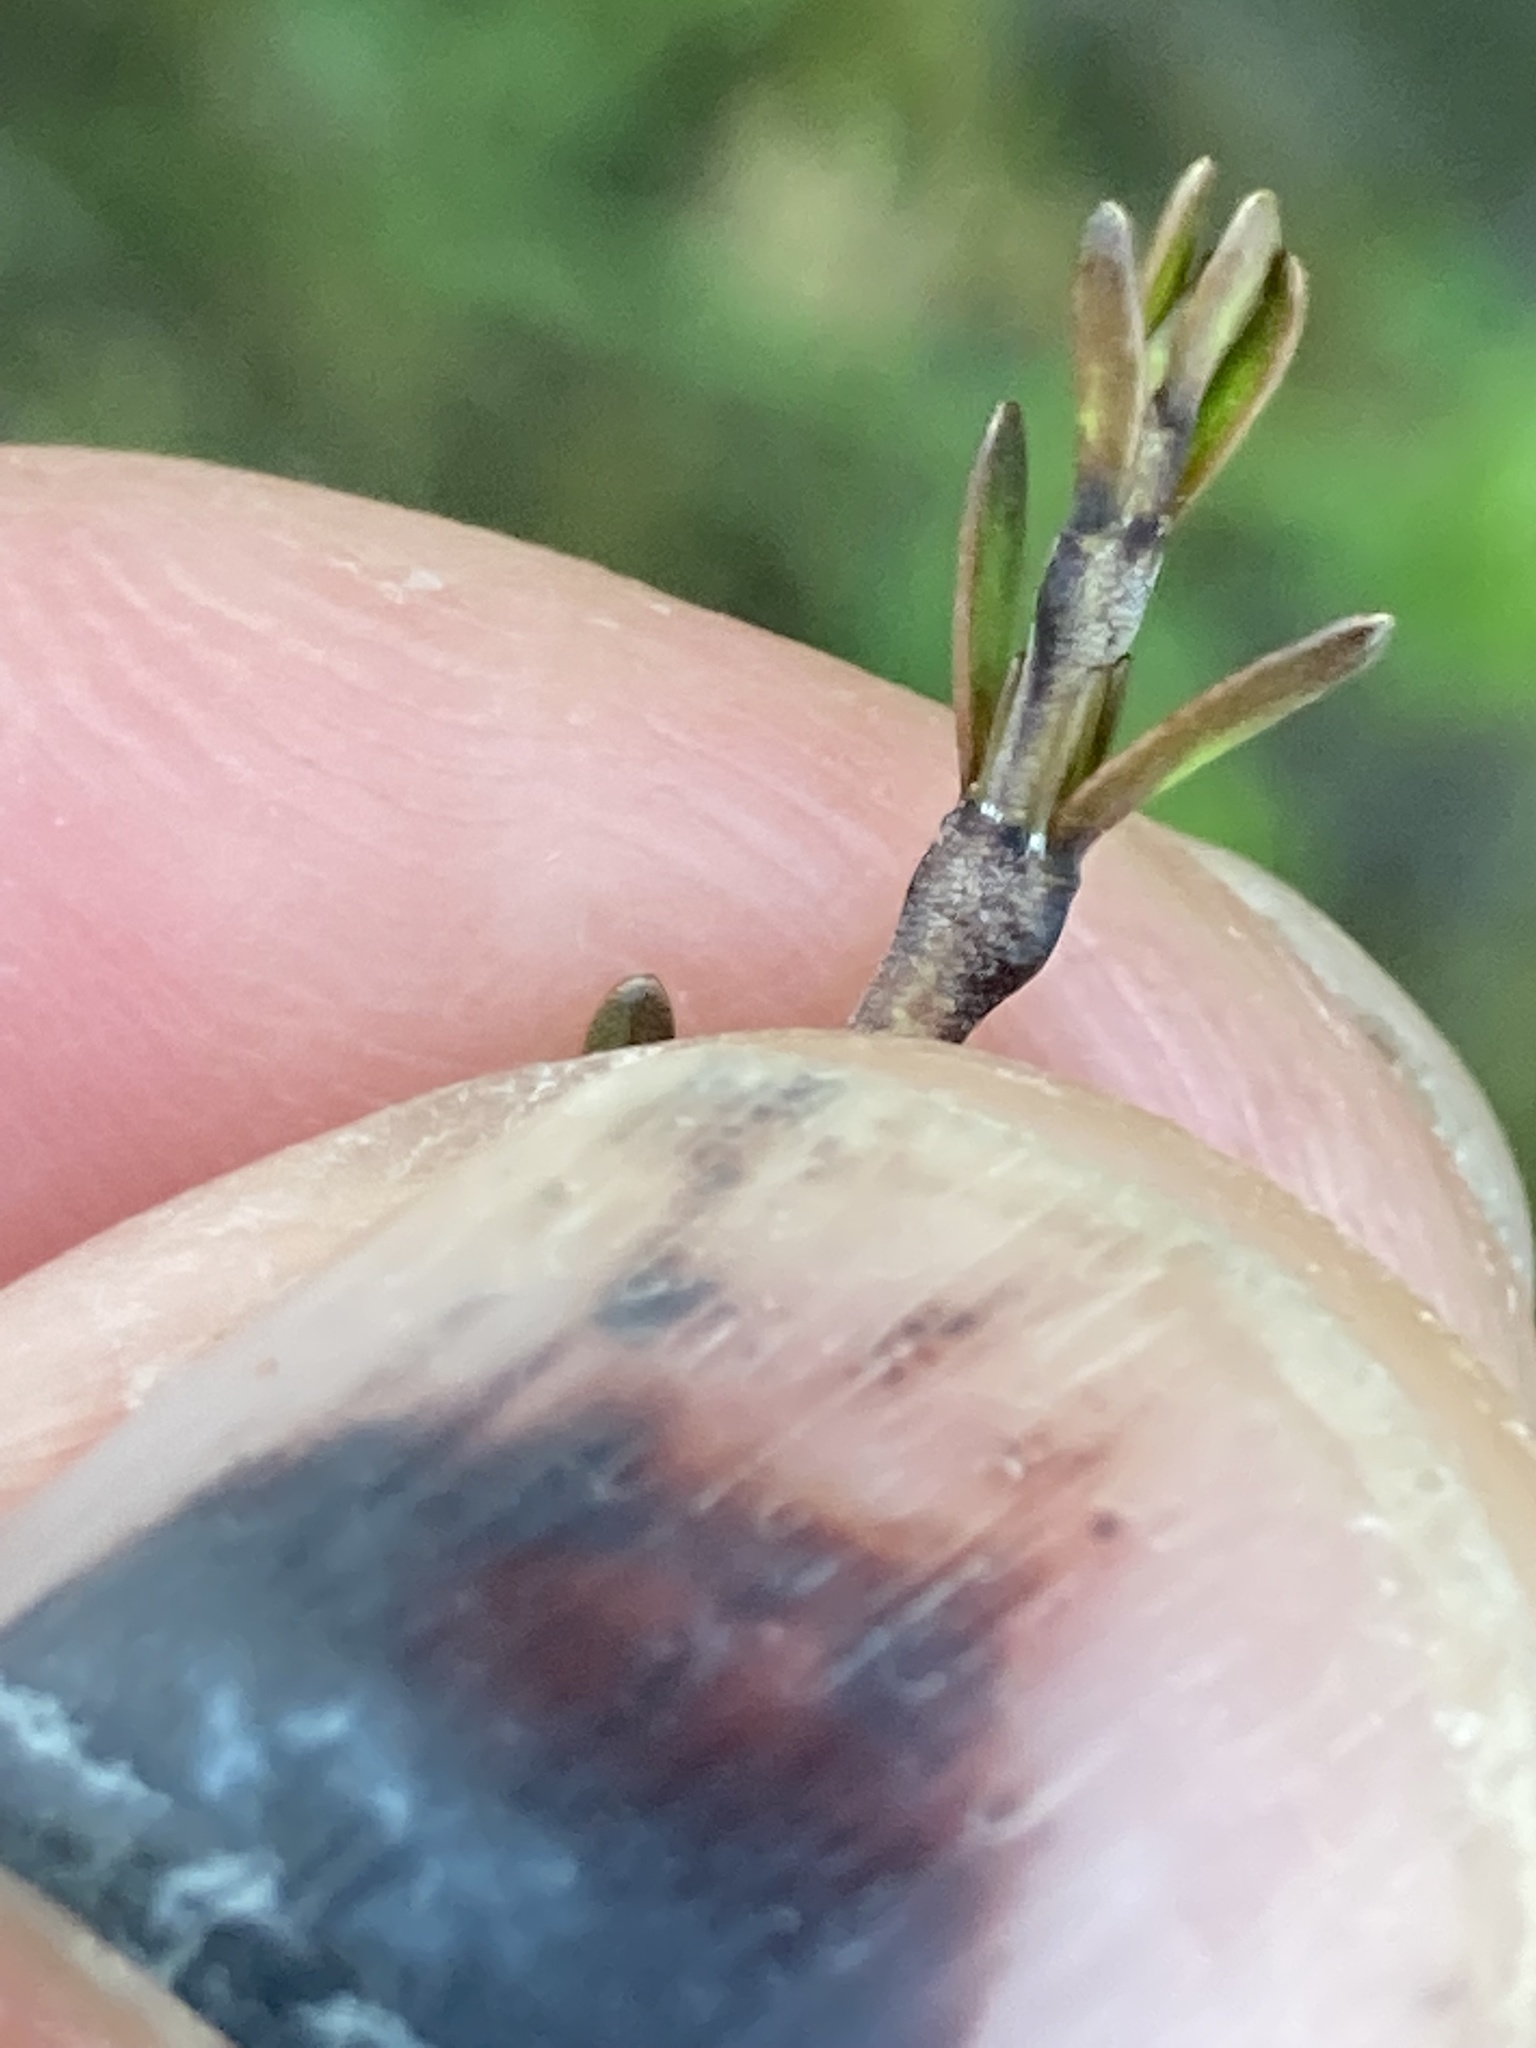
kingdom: Plantae
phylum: Tracheophyta
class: Magnoliopsida
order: Gentianales
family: Rubiaceae
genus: Coprosma
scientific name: Coprosma acerosa
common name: Sand coprosma
